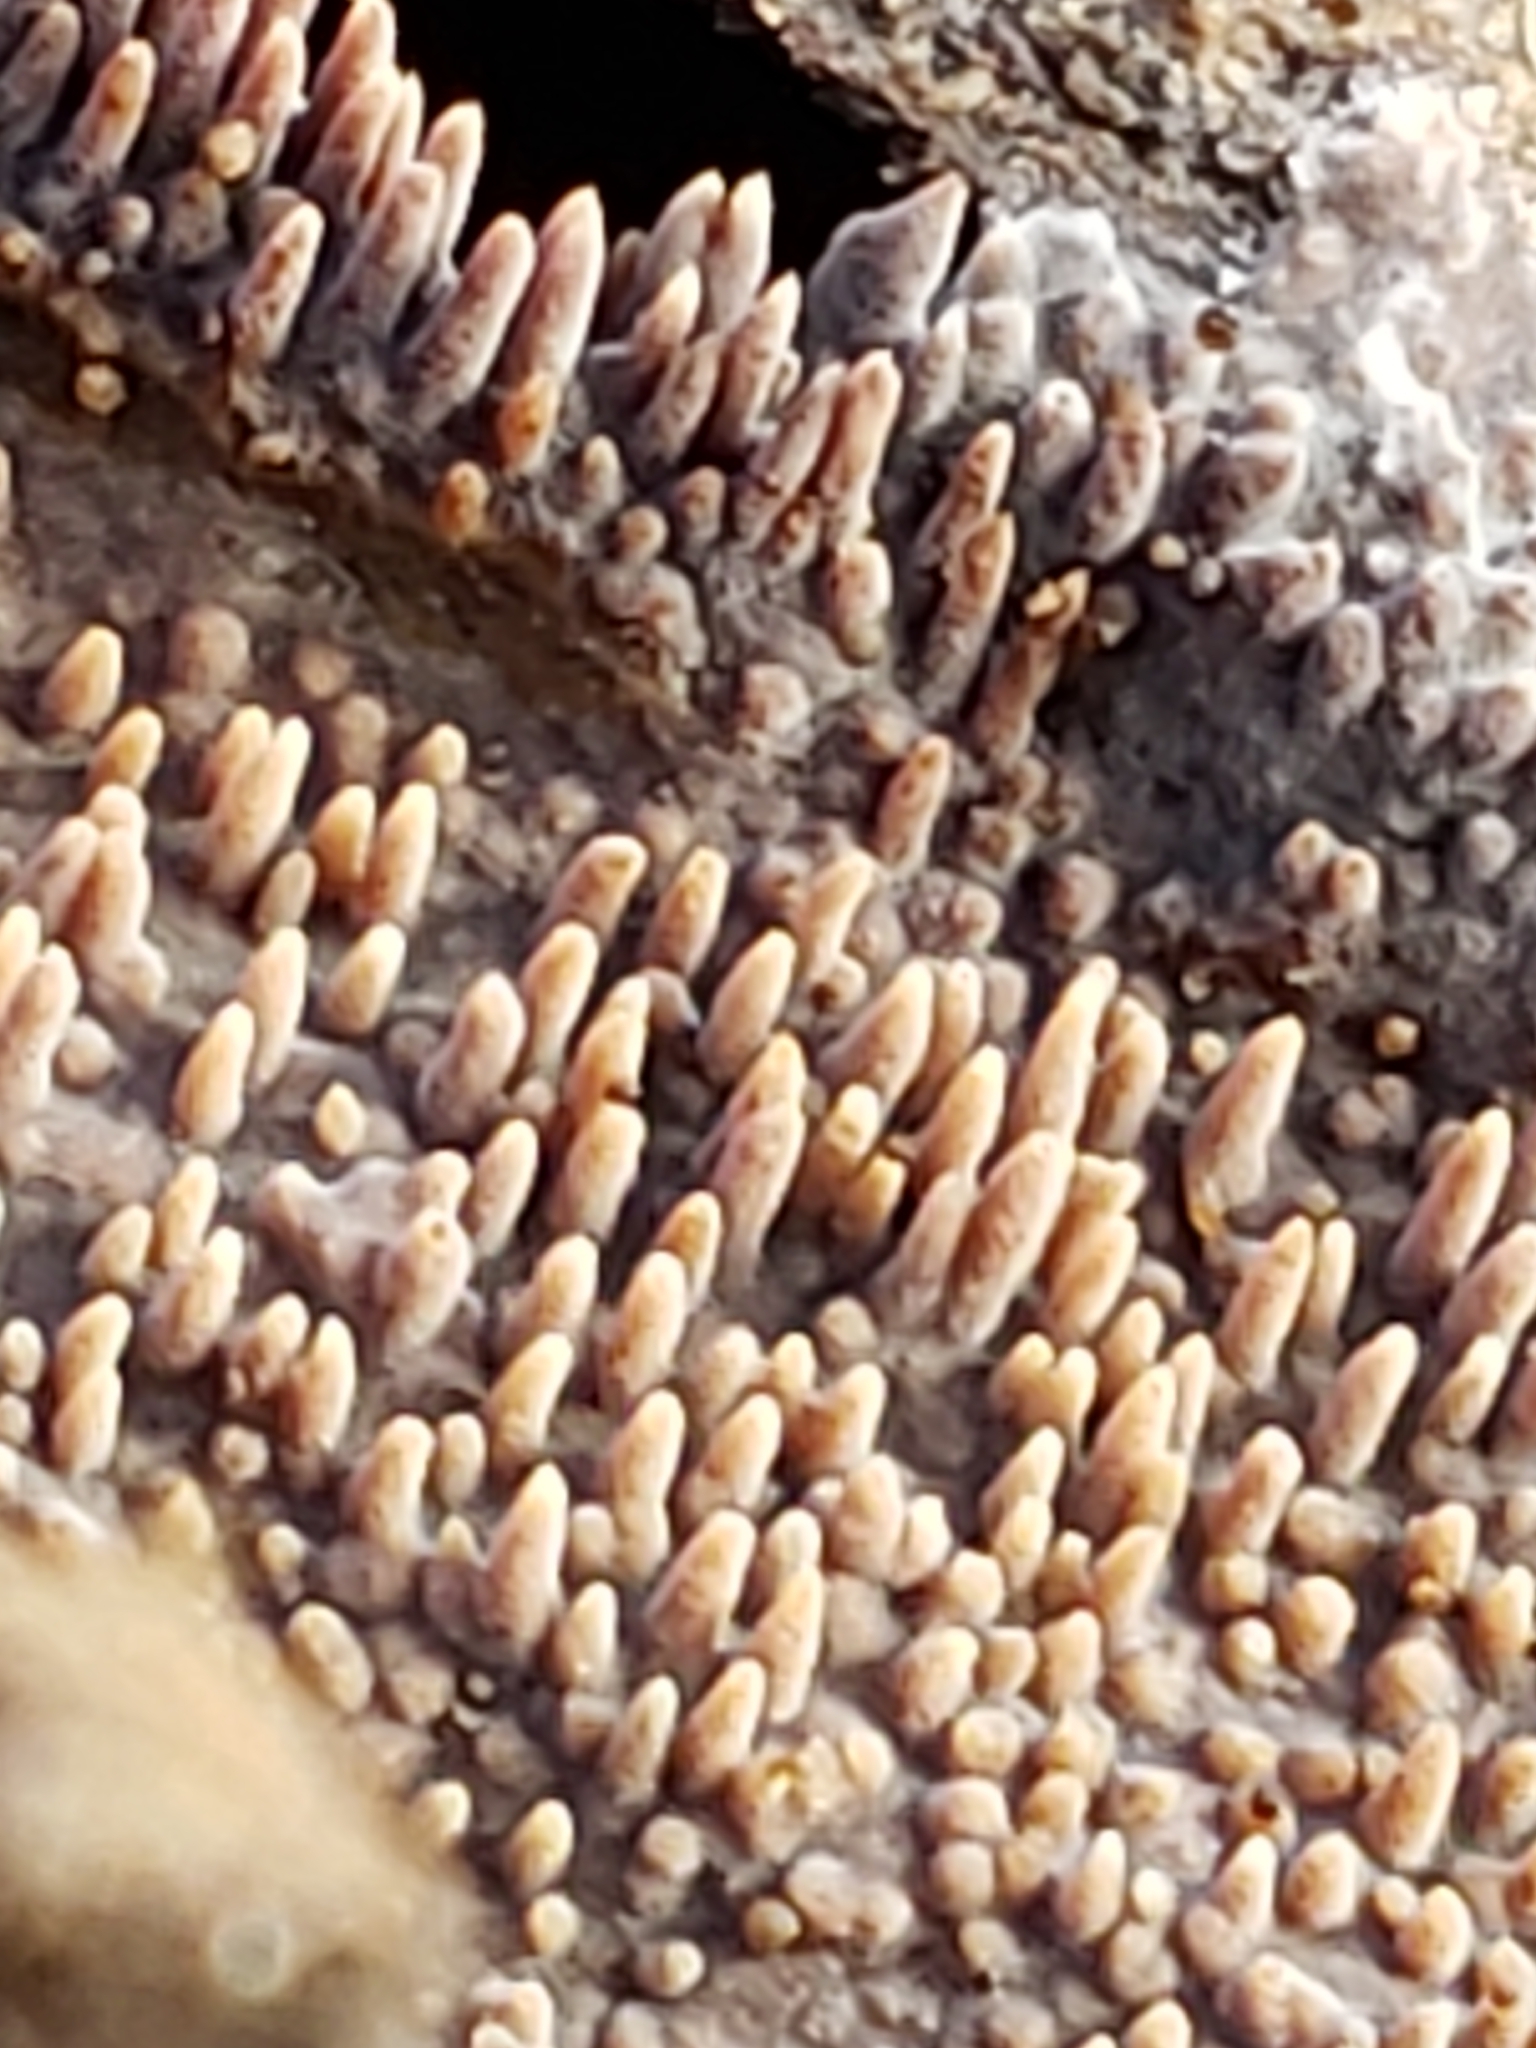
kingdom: Fungi
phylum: Basidiomycota
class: Agaricomycetes
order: Hymenochaetales
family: Schizoporaceae
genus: Xylodon
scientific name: Xylodon radula
